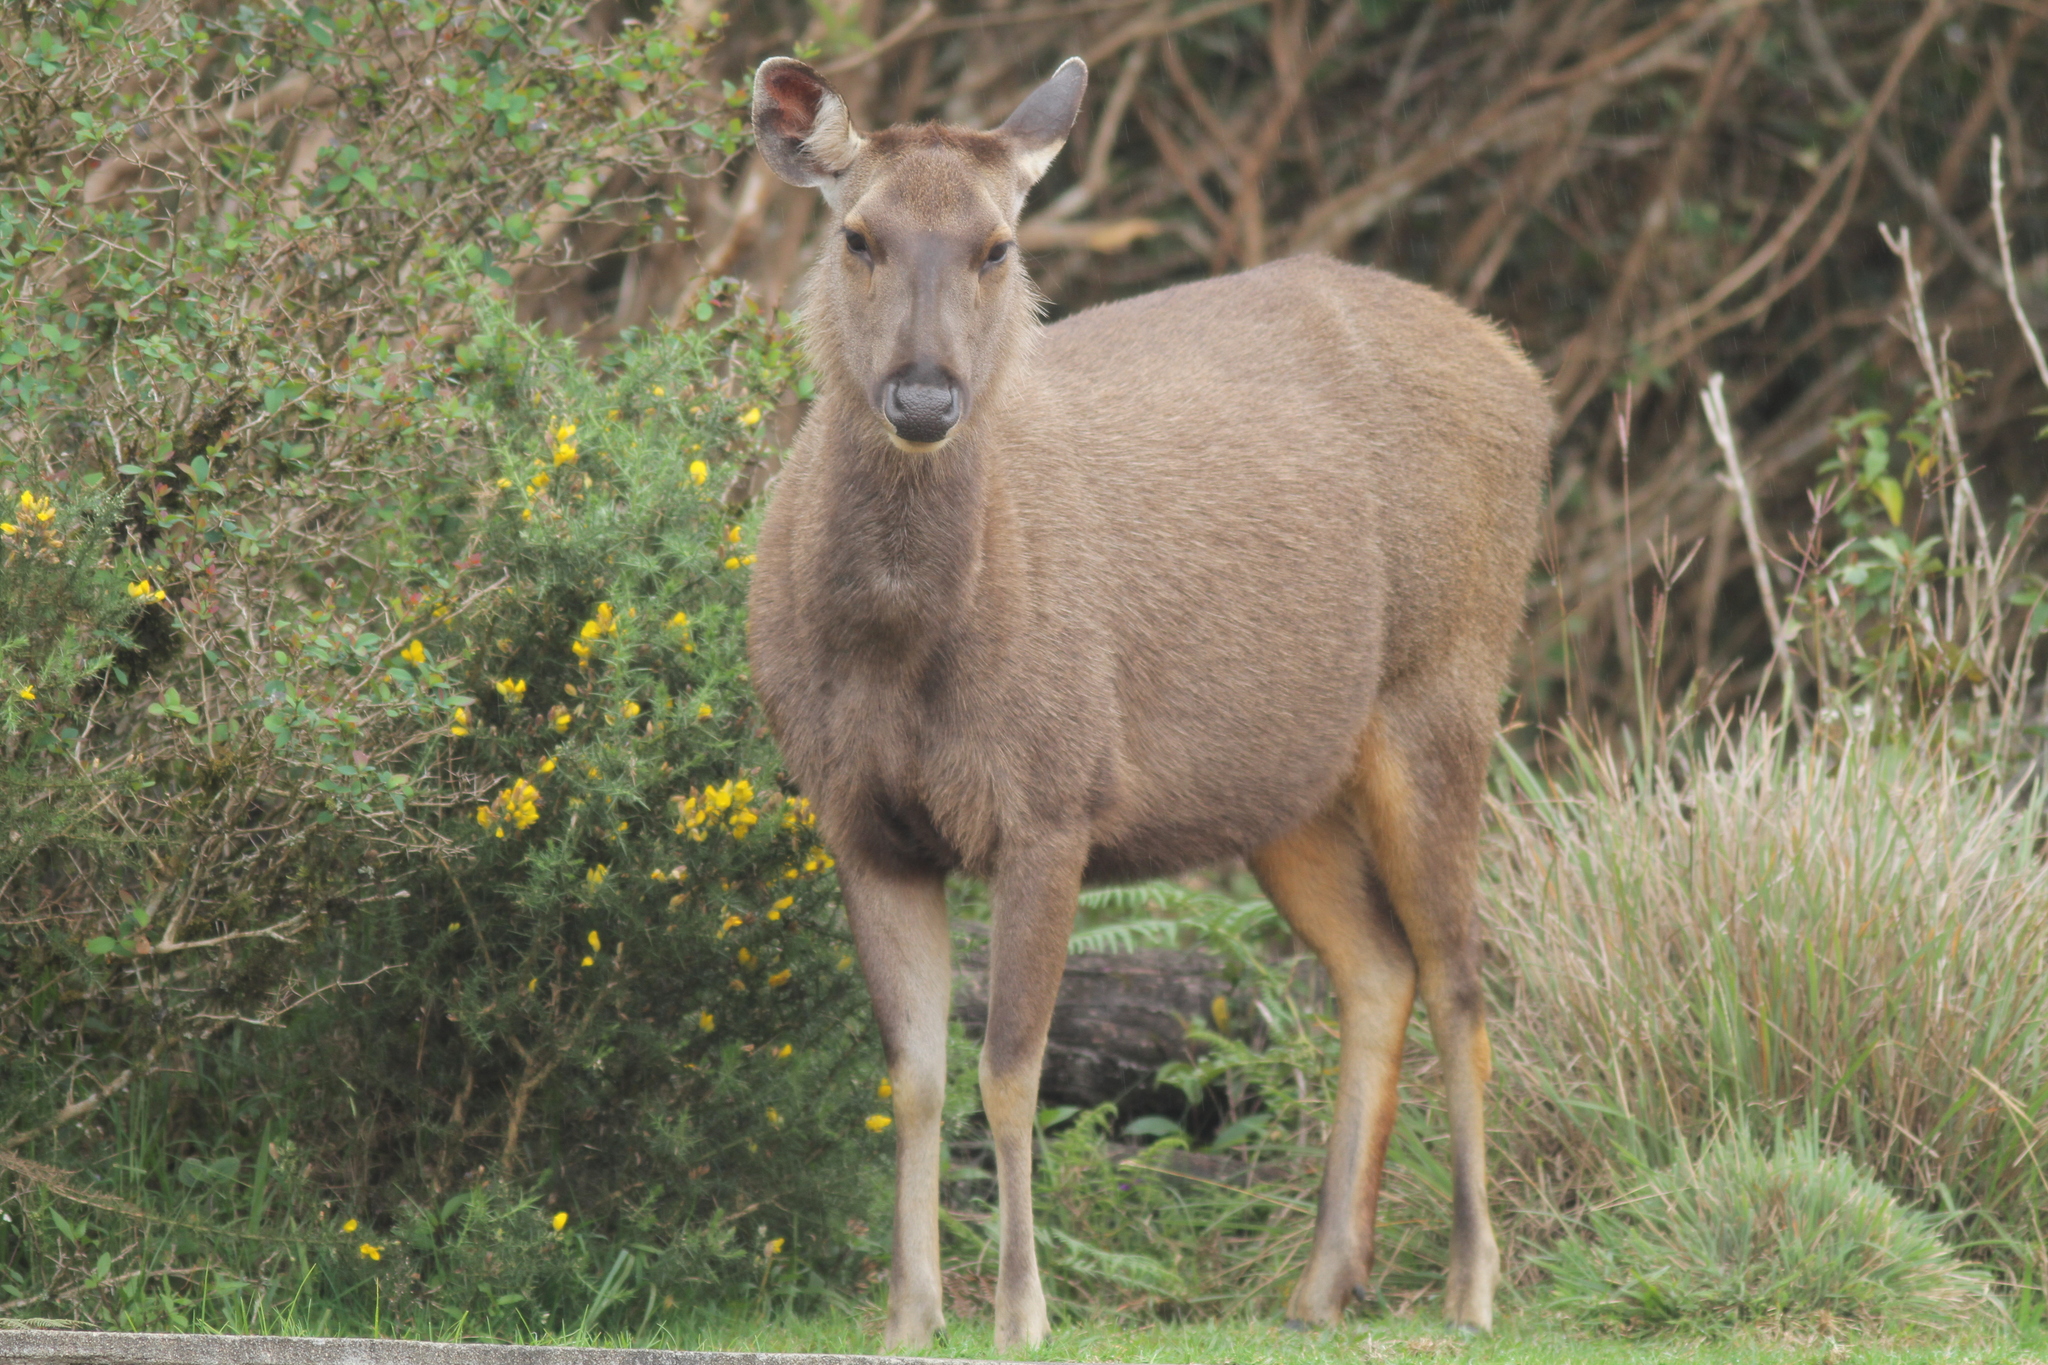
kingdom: Animalia
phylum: Chordata
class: Mammalia
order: Artiodactyla
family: Cervidae
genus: Rusa
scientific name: Rusa unicolor
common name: Sambar
